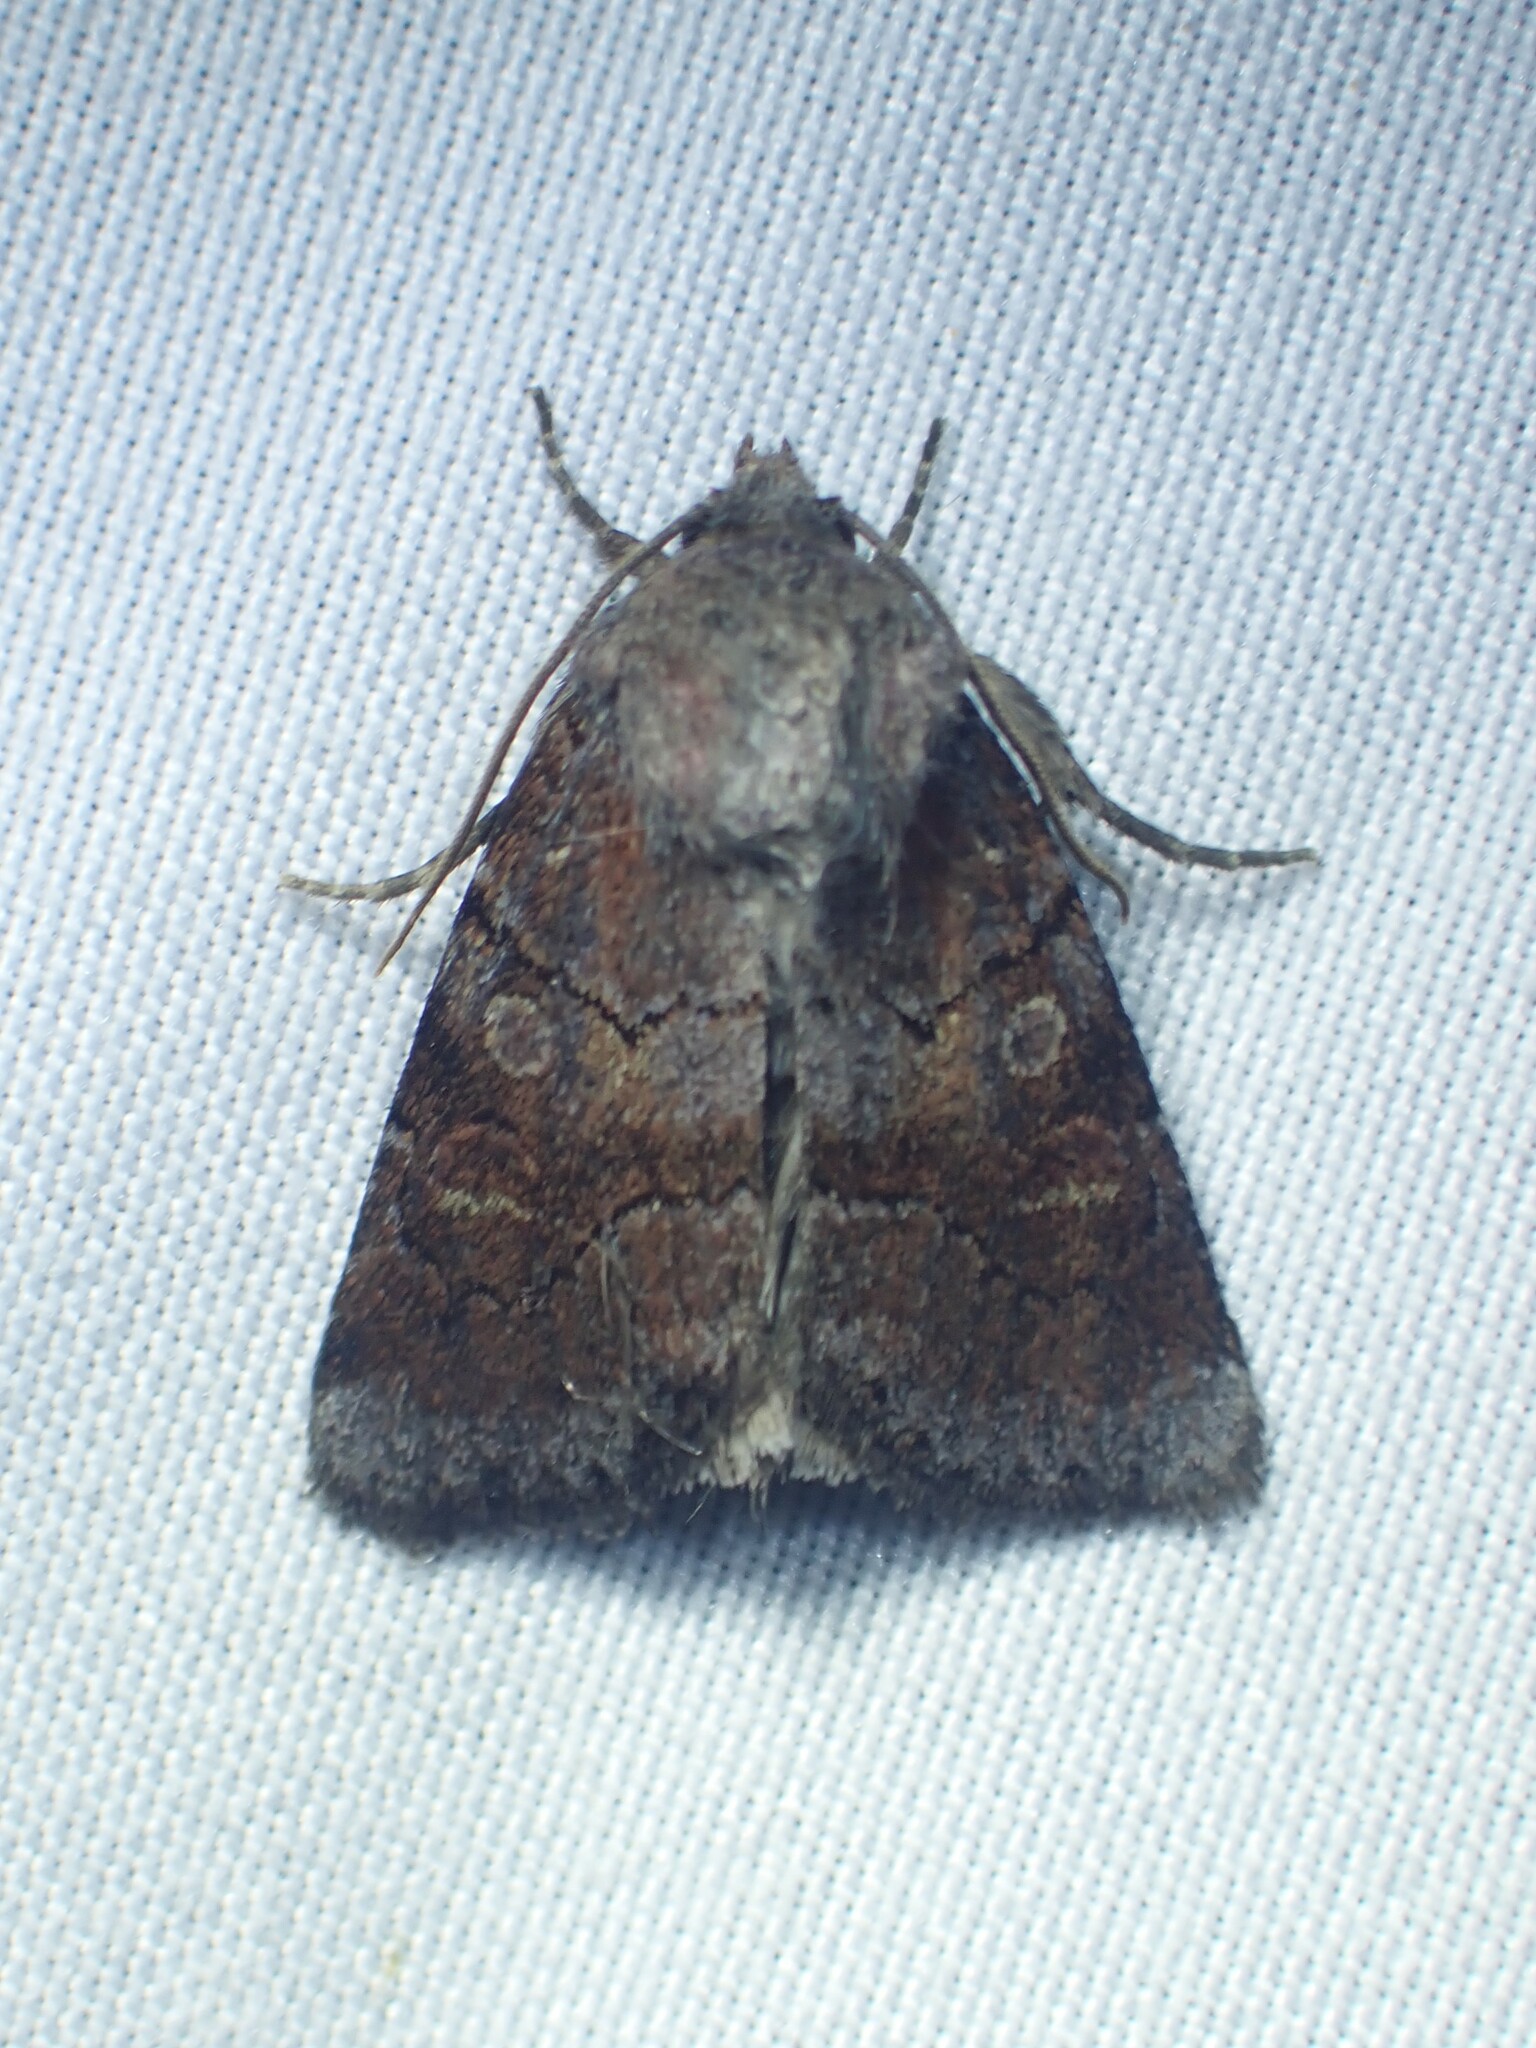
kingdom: Animalia
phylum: Arthropoda
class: Insecta
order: Lepidoptera
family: Noctuidae
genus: Oligia
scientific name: Oligia minuscula
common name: Small brocade
